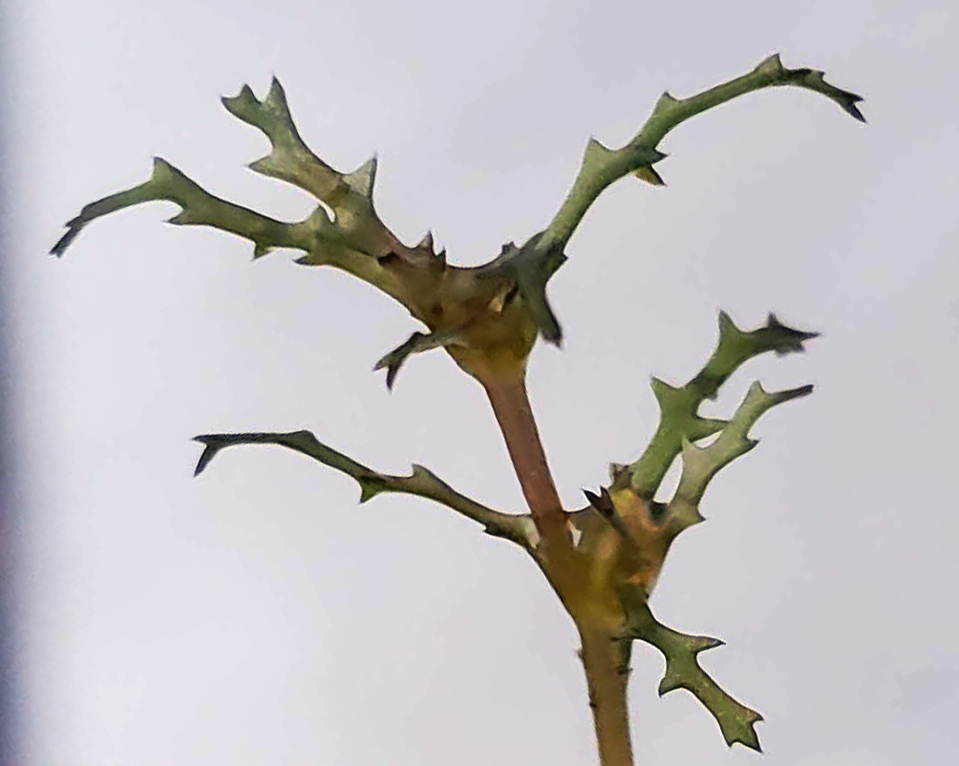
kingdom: Plantae
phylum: Tracheophyta
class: Liliopsida
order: Alismatales
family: Hydrocharitaceae
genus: Najas
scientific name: Najas marina
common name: Holly-leaved naiad
